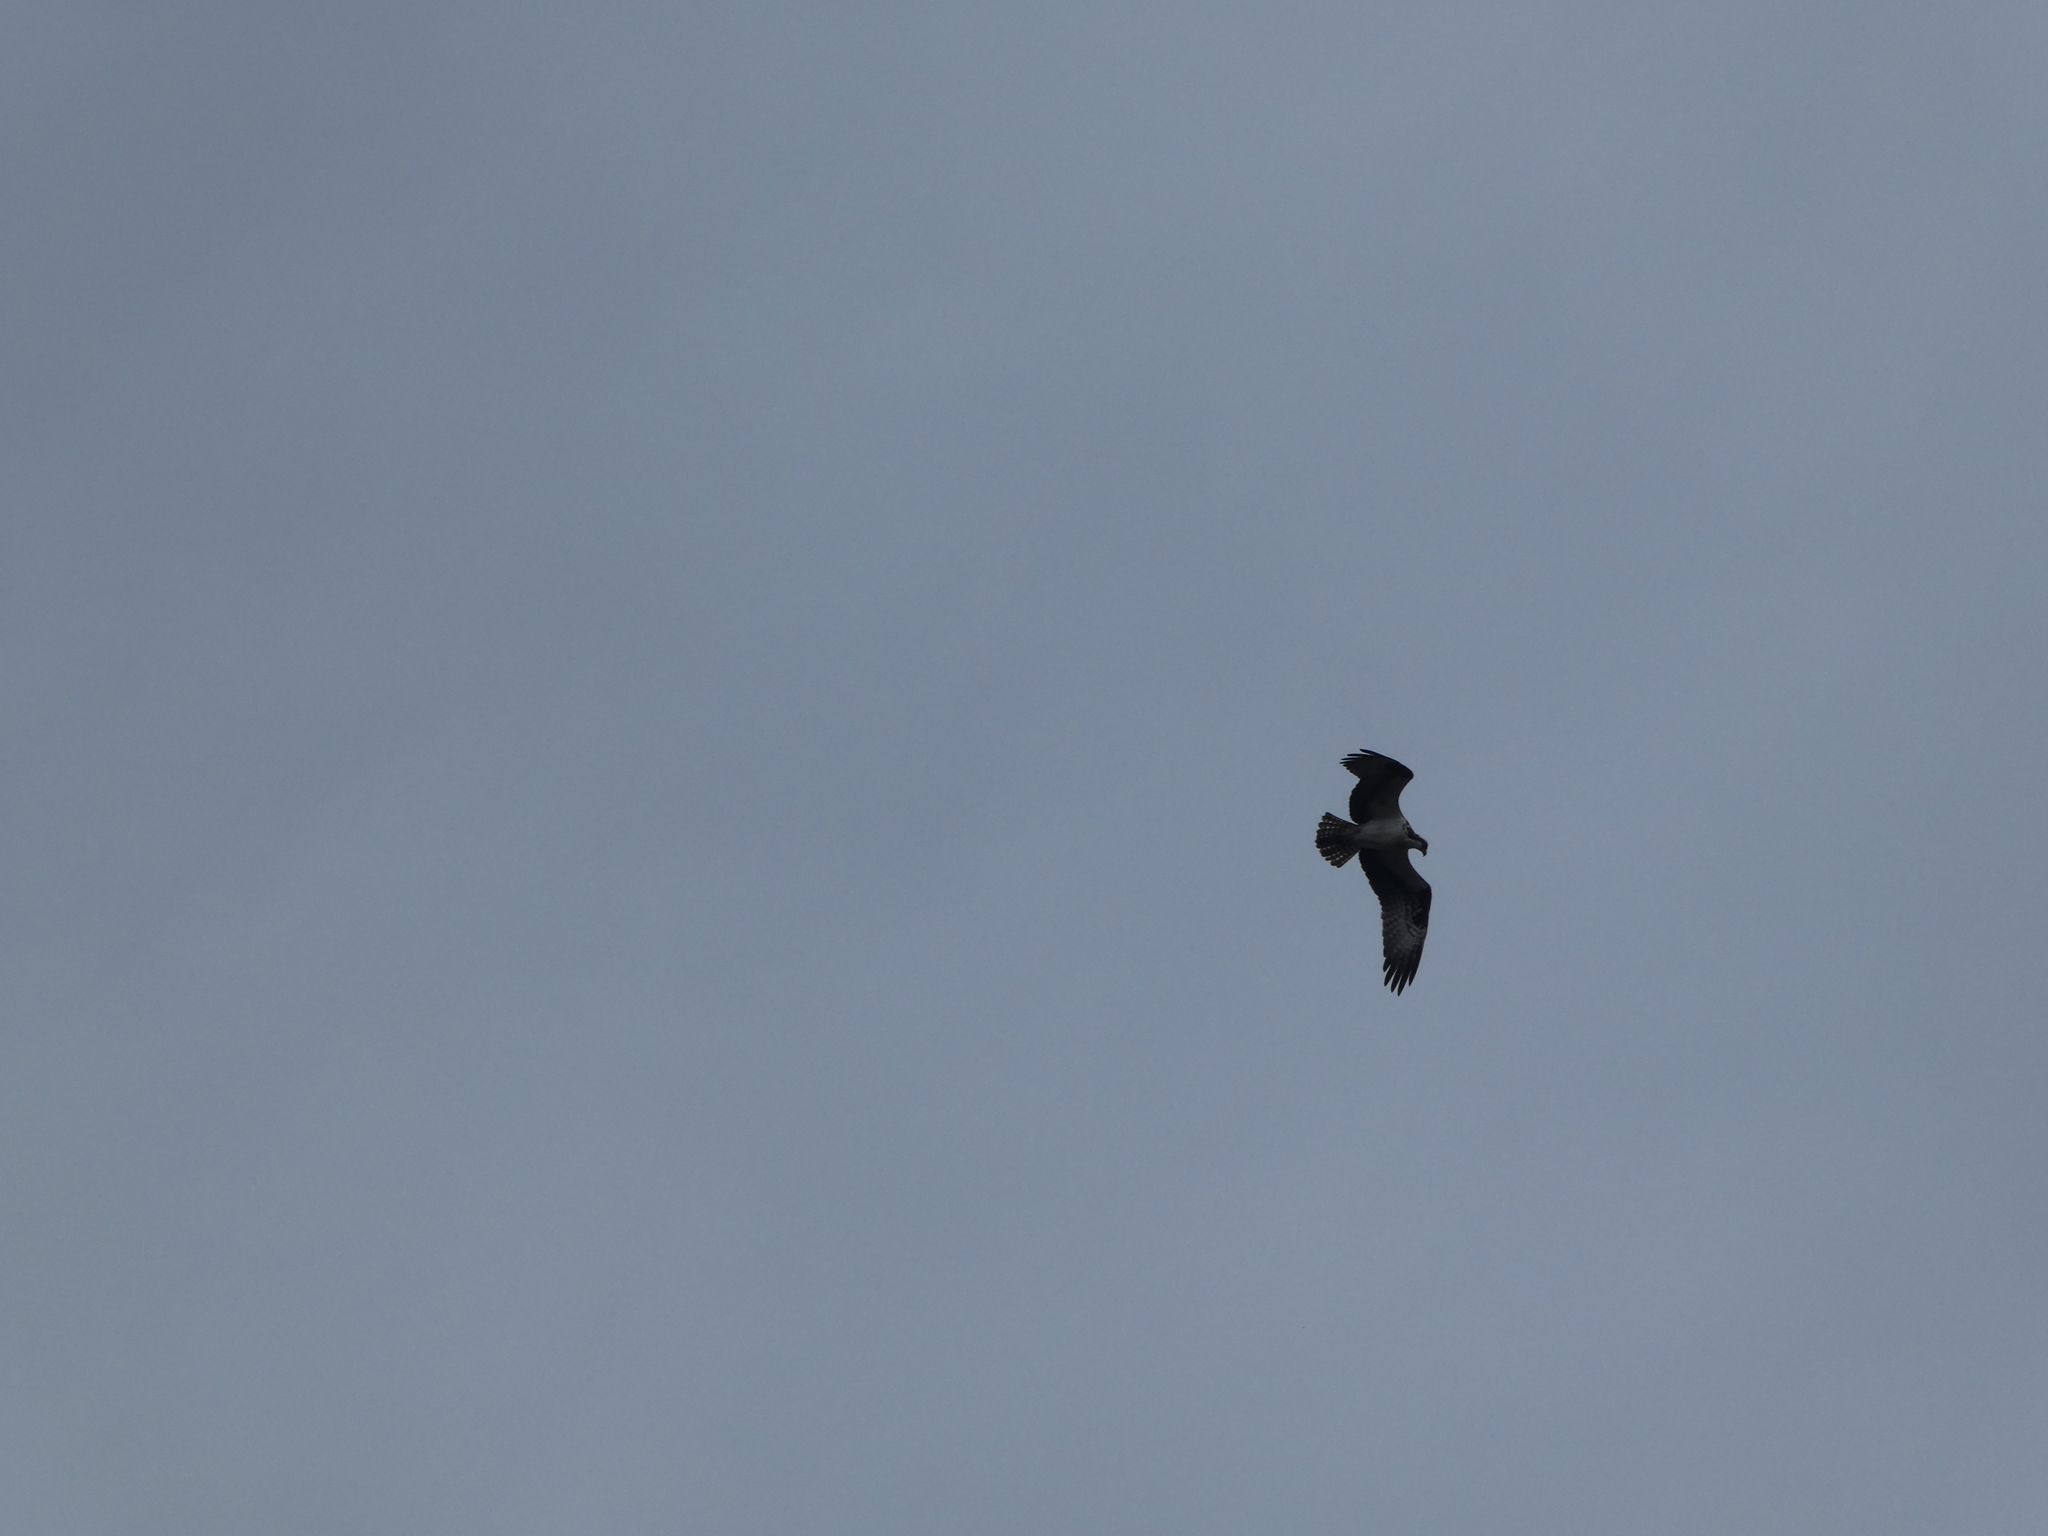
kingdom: Animalia
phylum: Chordata
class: Aves
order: Accipitriformes
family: Pandionidae
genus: Pandion
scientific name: Pandion haliaetus
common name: Osprey
